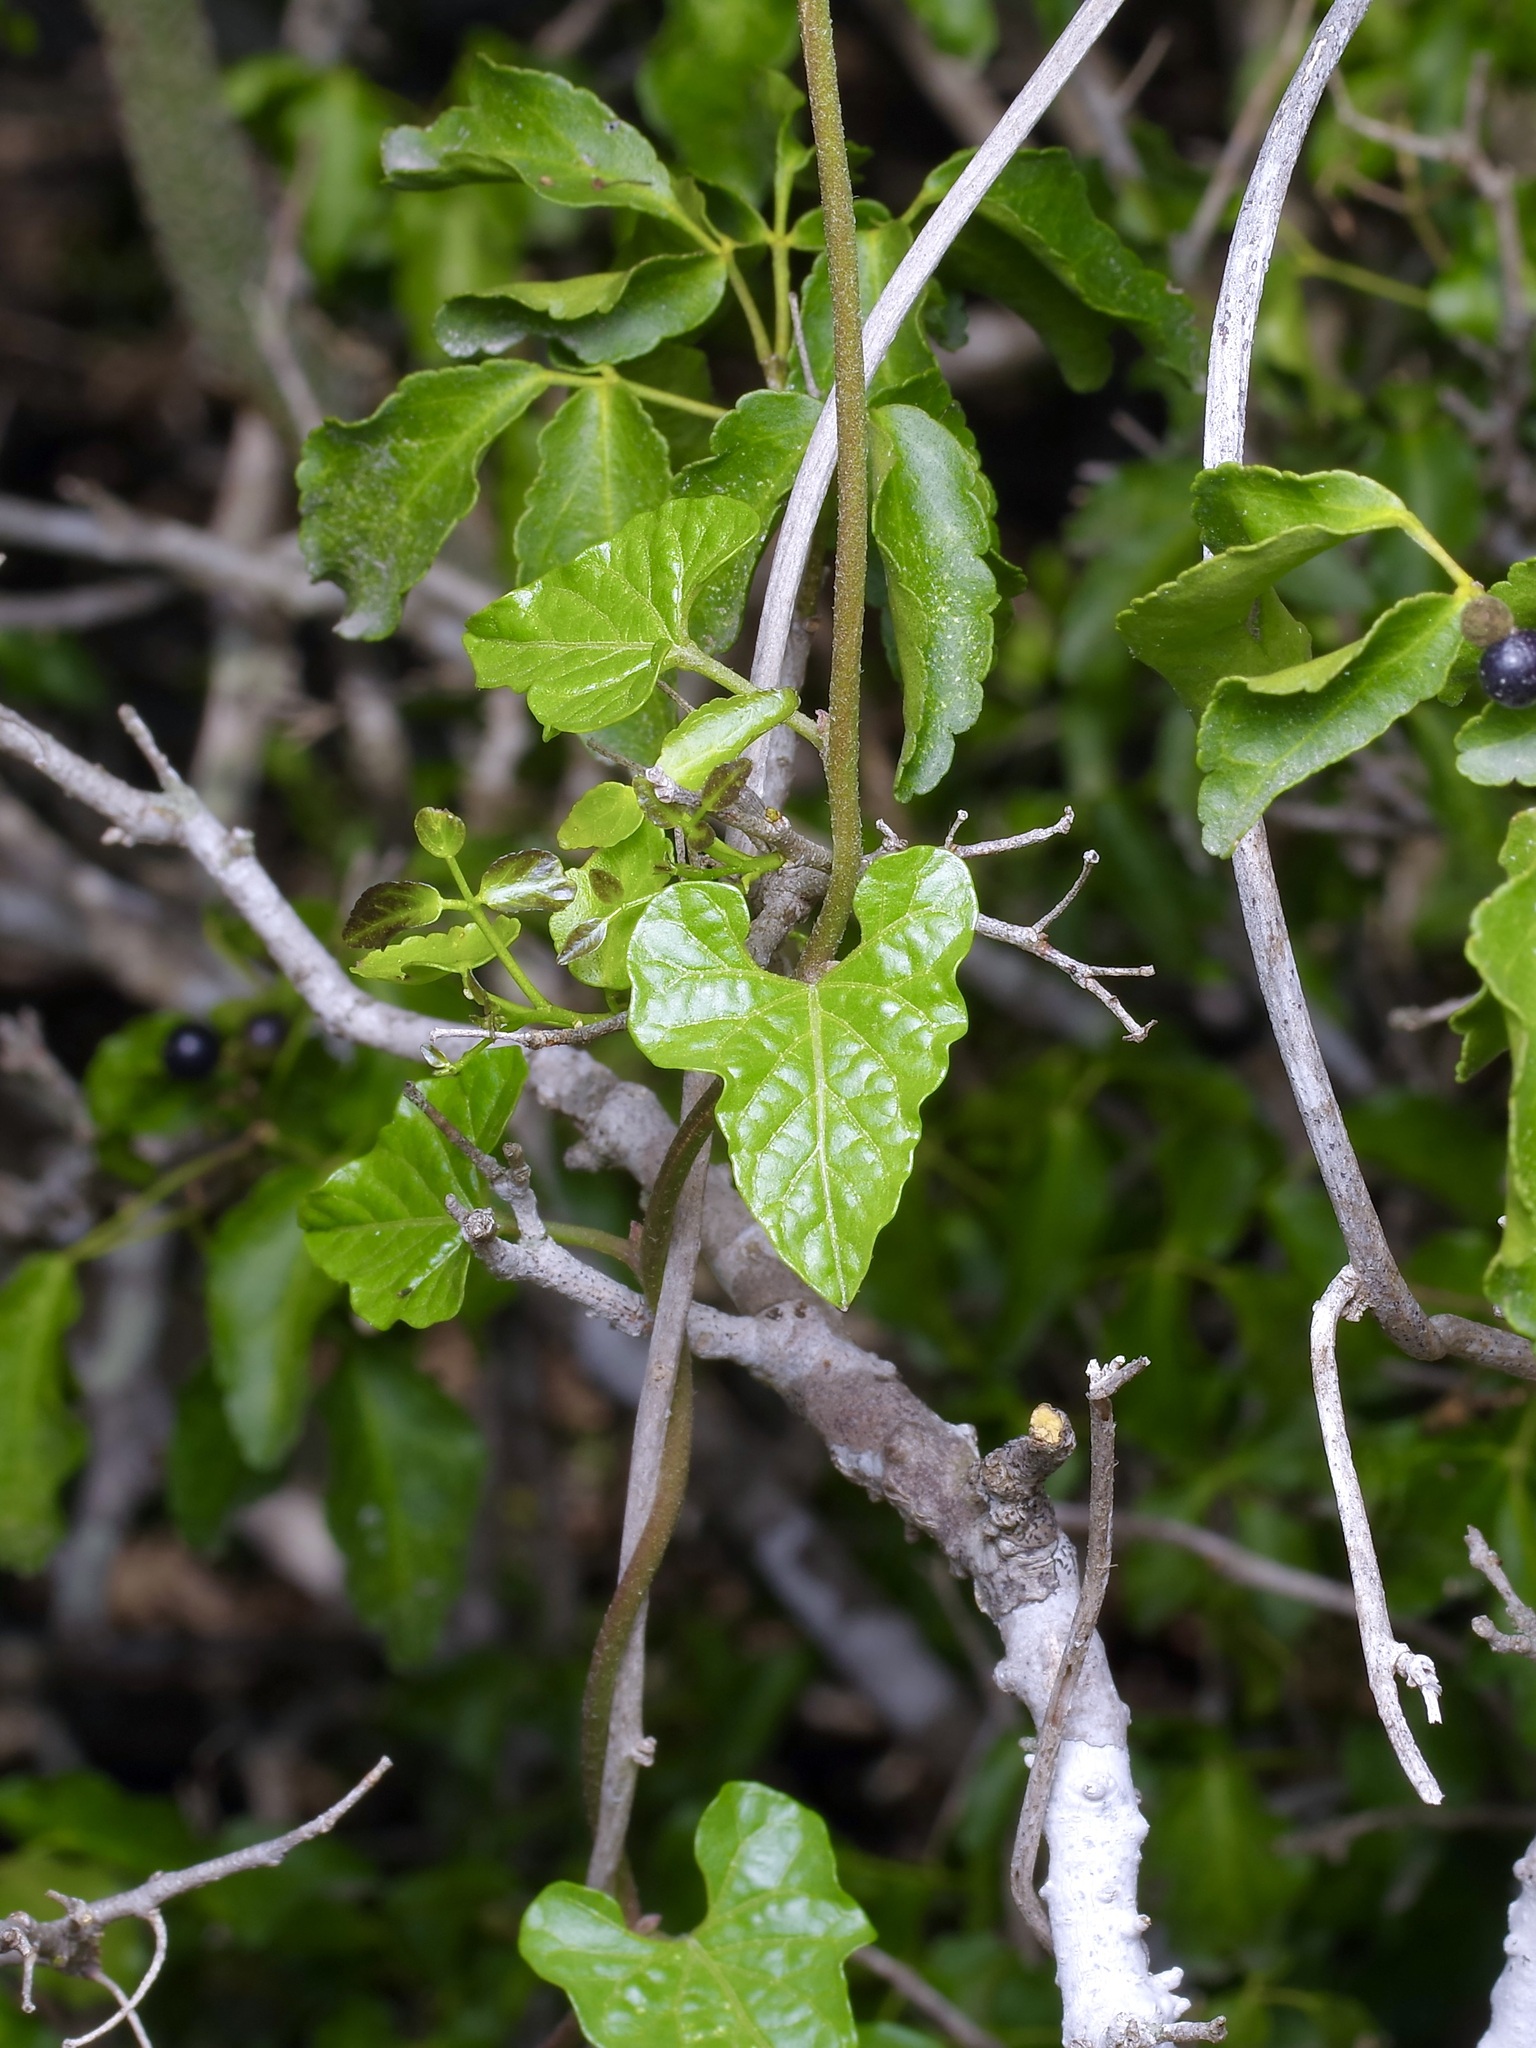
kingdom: Plantae
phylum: Tracheophyta
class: Magnoliopsida
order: Solanales
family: Convolvulaceae
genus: Ipomoea
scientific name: Ipomoea rupicola
